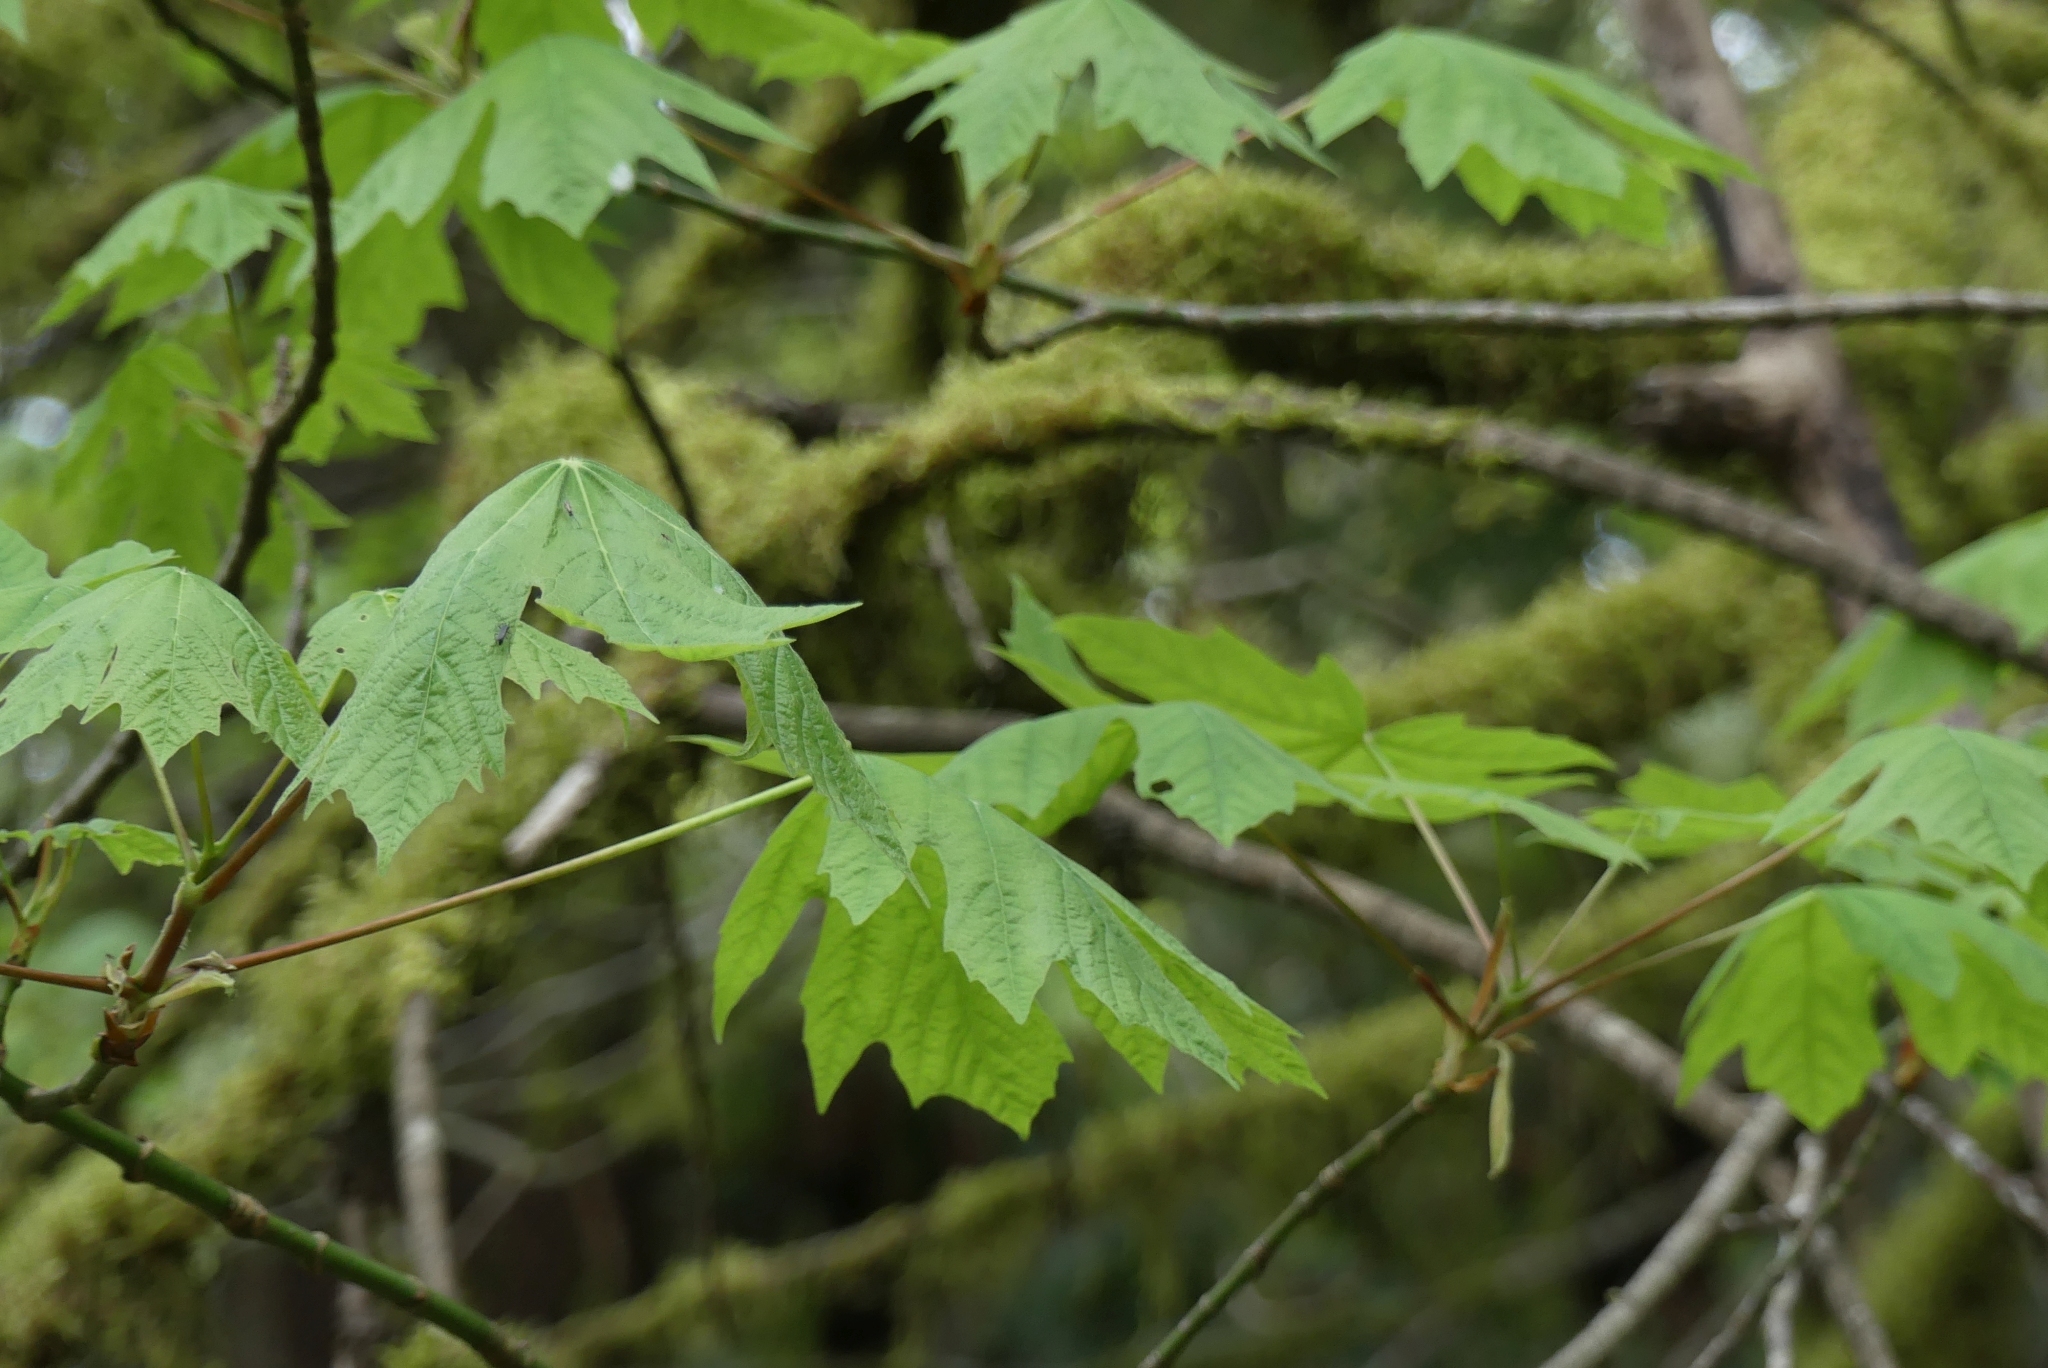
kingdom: Plantae
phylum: Tracheophyta
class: Magnoliopsida
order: Sapindales
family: Sapindaceae
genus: Acer
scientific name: Acer macrophyllum
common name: Oregon maple
